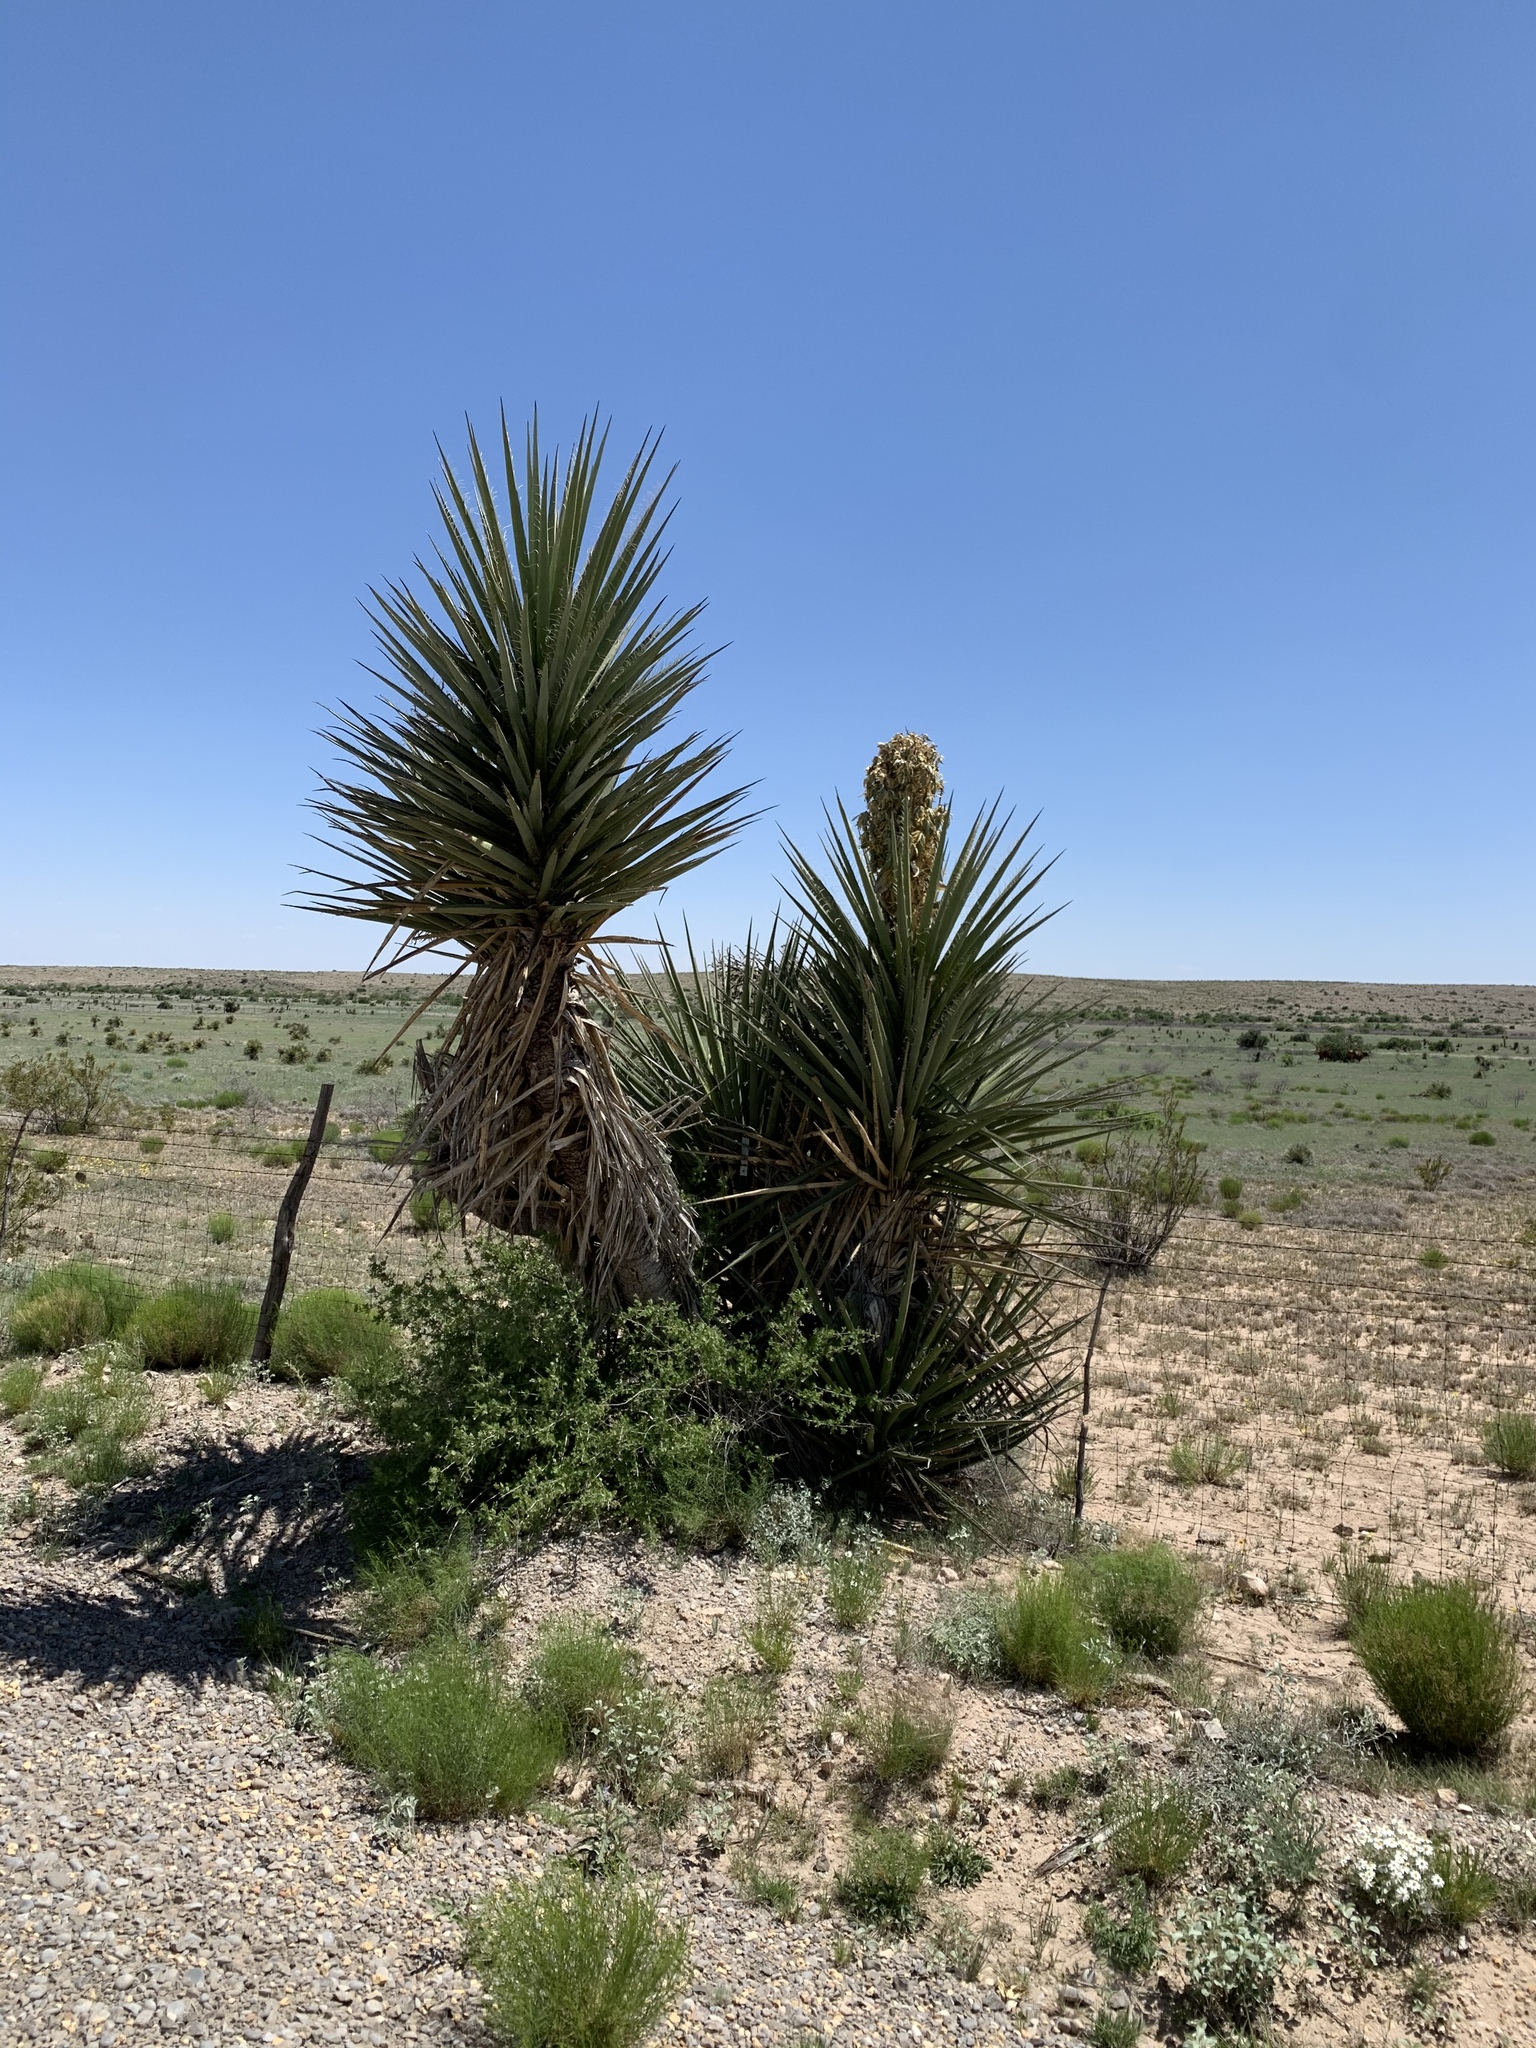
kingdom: Plantae
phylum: Tracheophyta
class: Liliopsida
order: Asparagales
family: Asparagaceae
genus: Yucca
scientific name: Yucca treculiana
